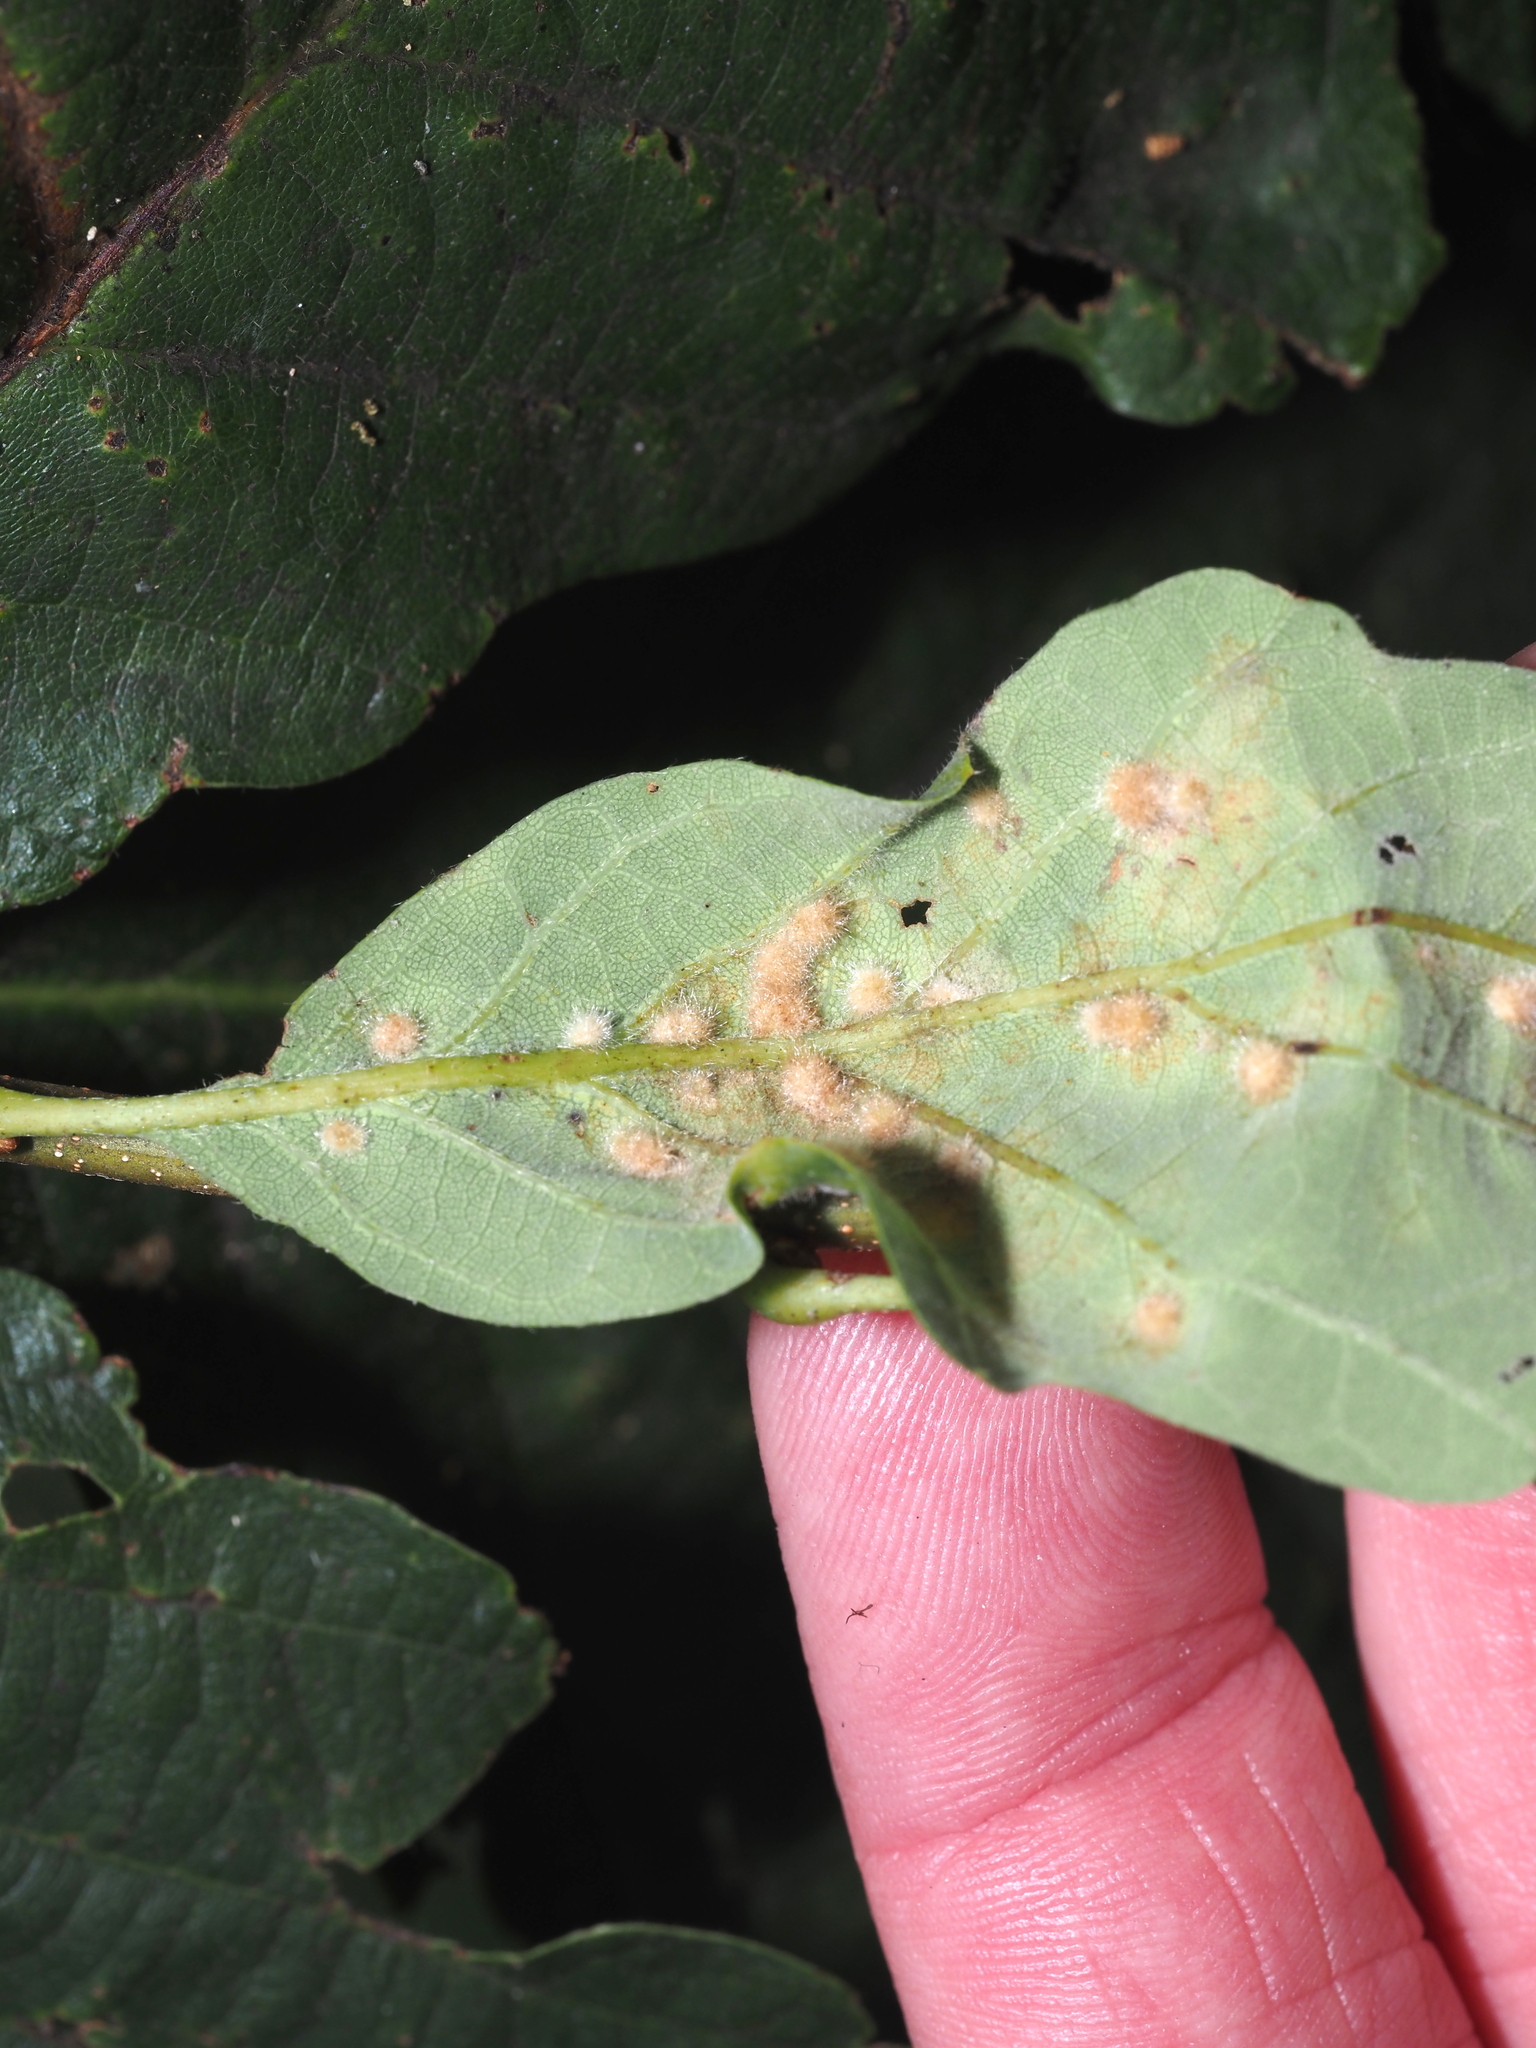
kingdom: Animalia
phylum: Arthropoda
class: Insecta
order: Hymenoptera
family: Cynipidae
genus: Neuroterus
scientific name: Neuroterus quercusverrucarum
